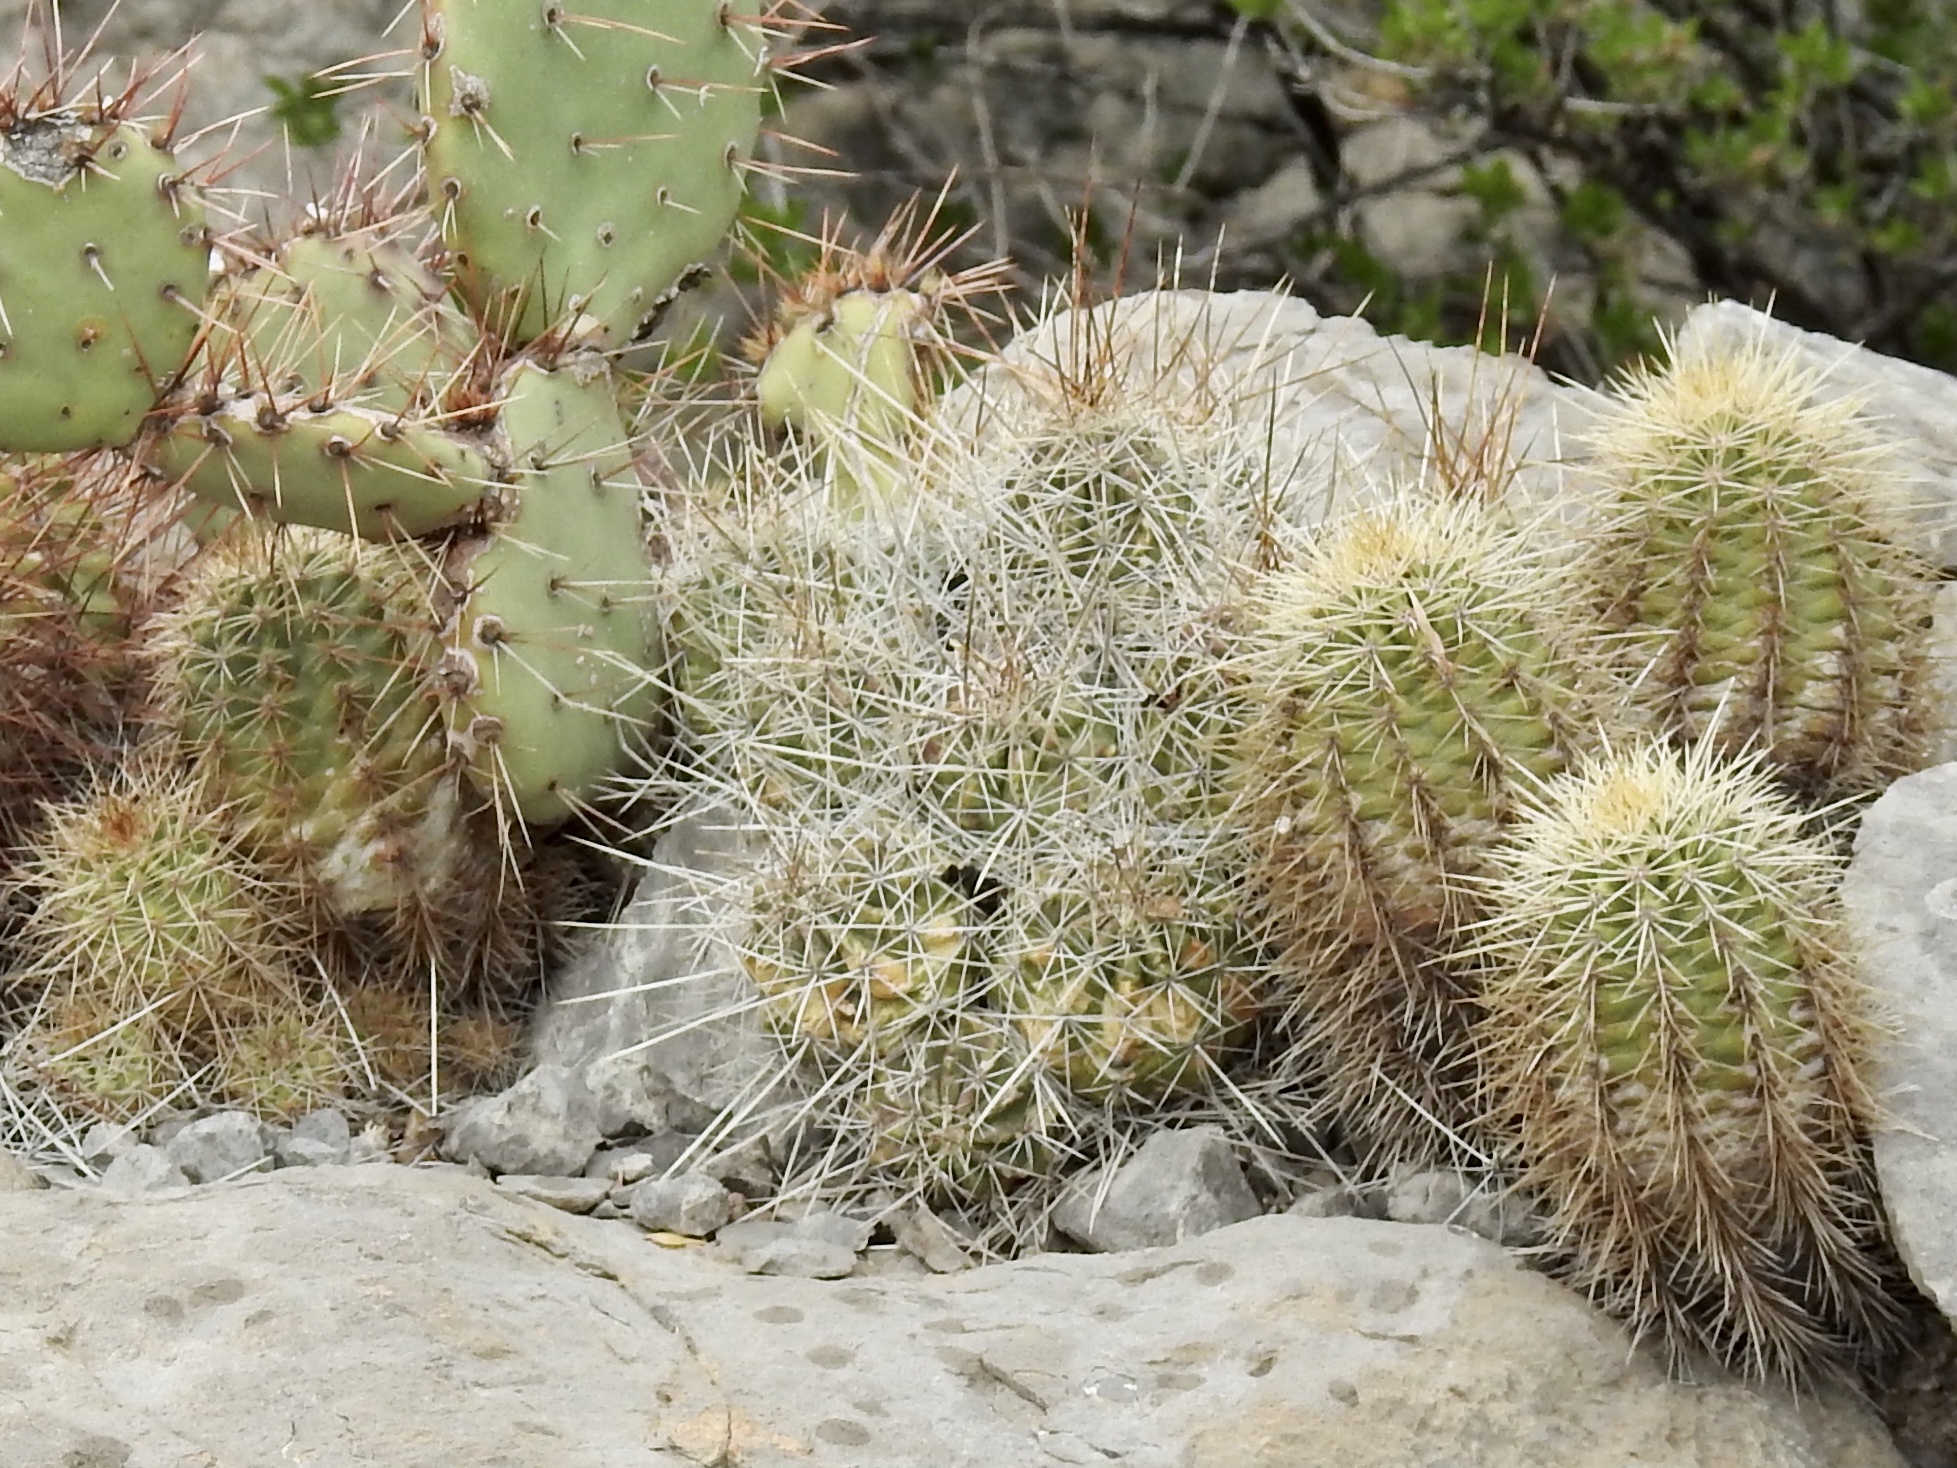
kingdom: Plantae
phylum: Tracheophyta
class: Magnoliopsida
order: Caryophyllales
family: Cactaceae
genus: Echinocereus
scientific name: Echinocereus stramineus
